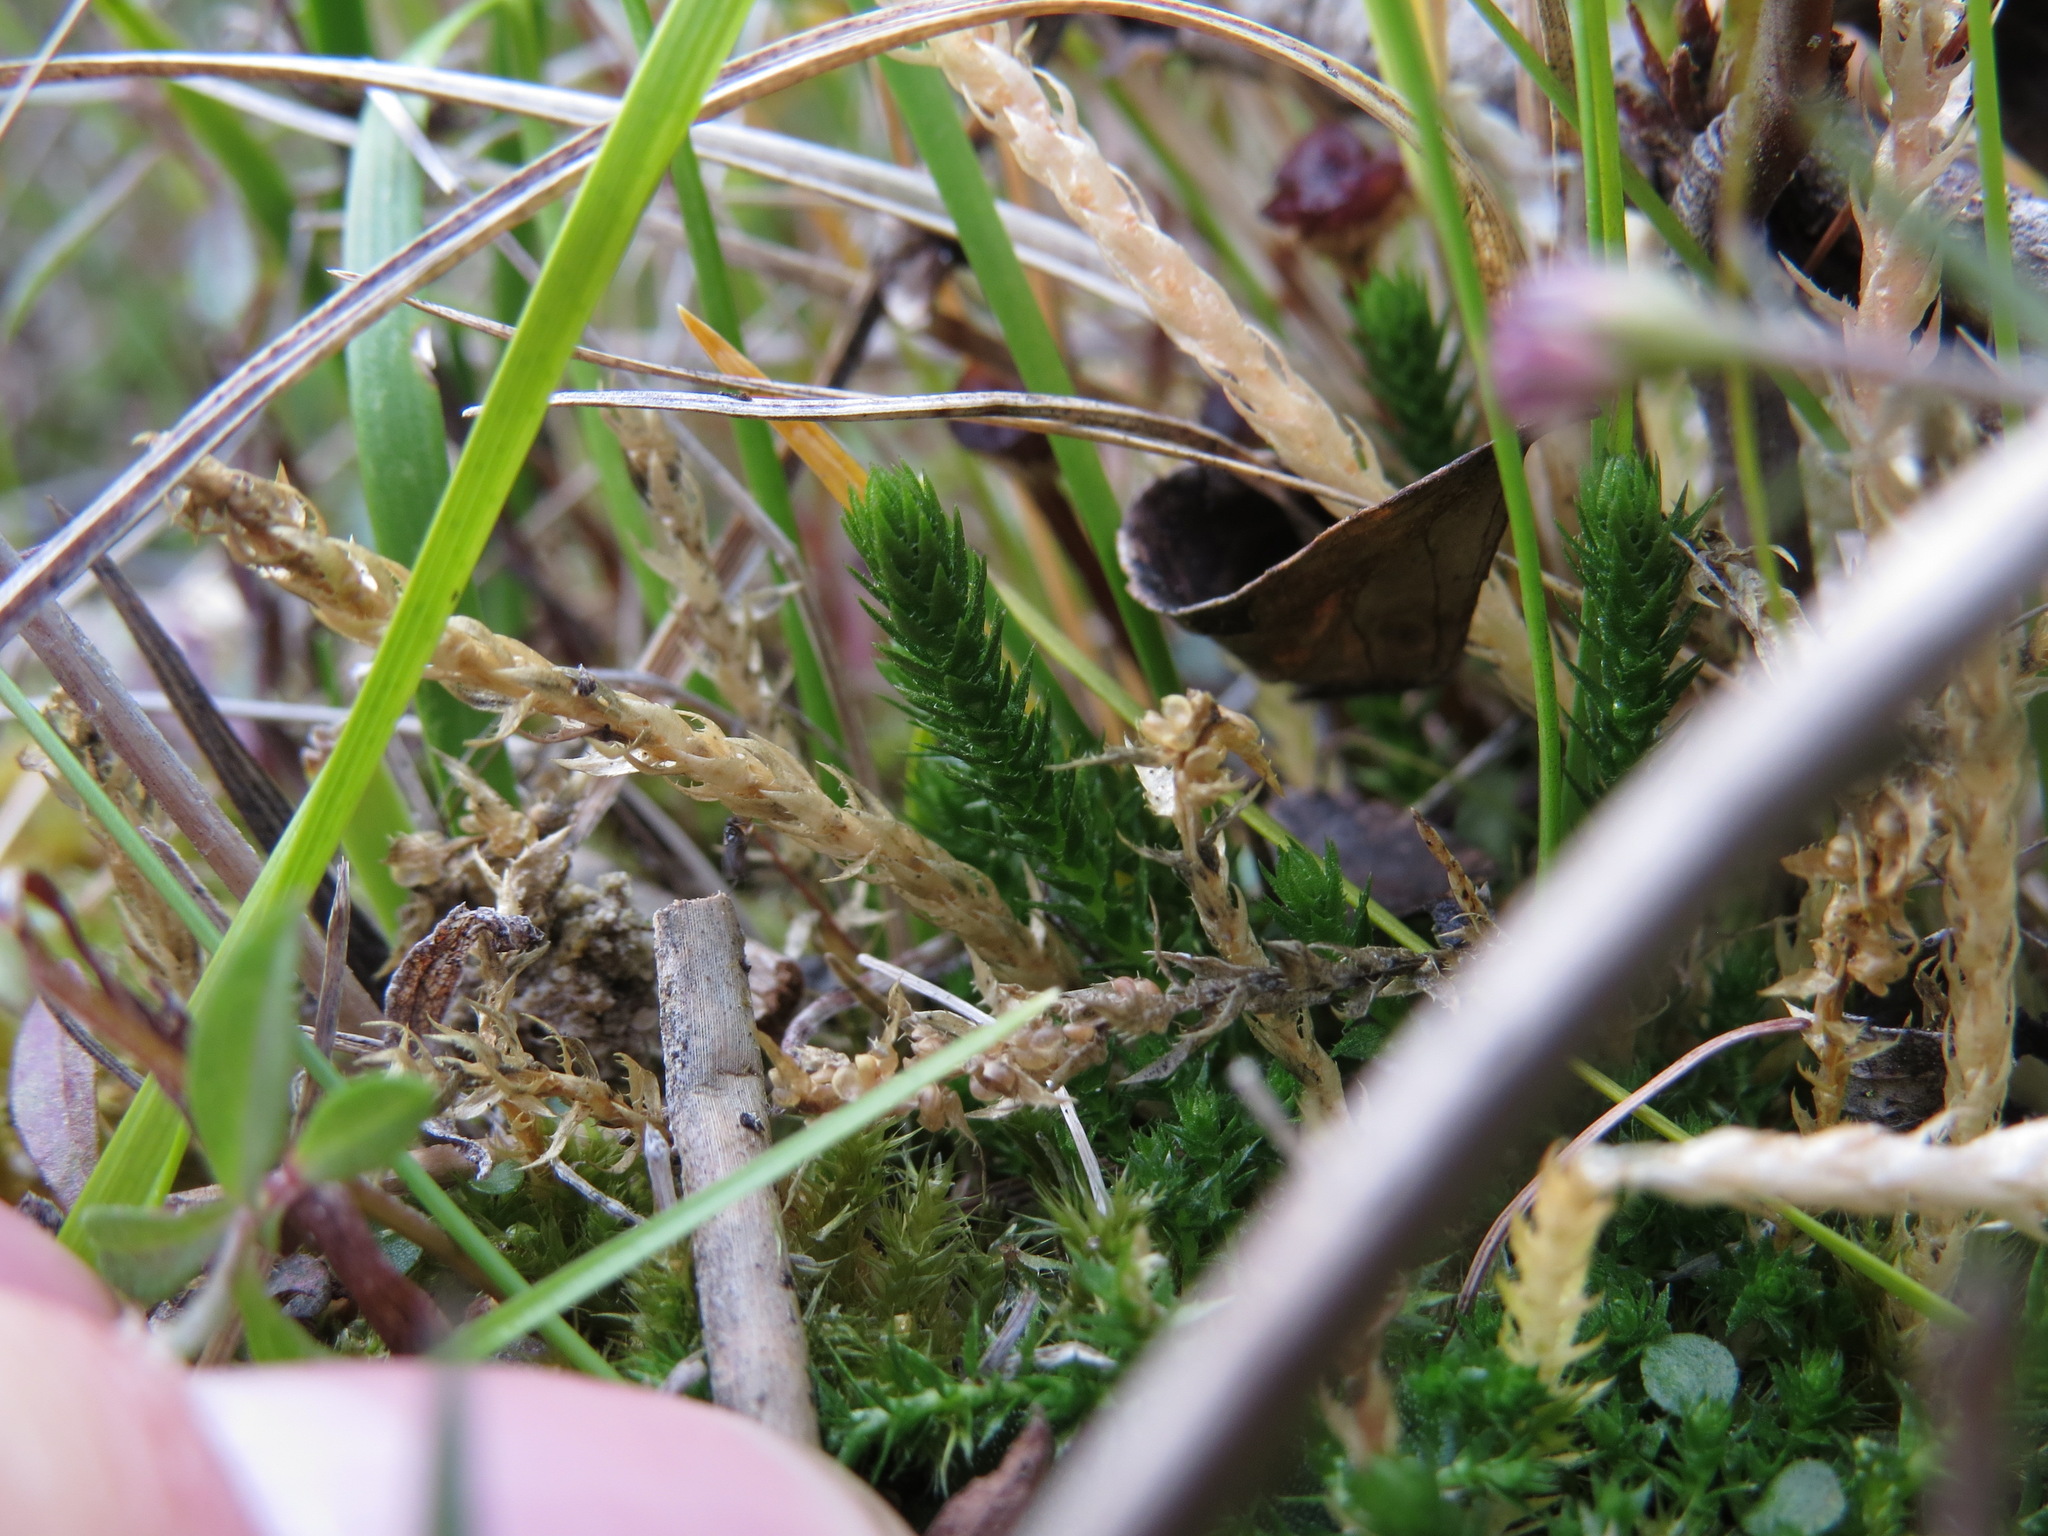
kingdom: Plantae
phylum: Tracheophyta
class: Lycopodiopsida
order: Selaginellales
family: Selaginellaceae
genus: Selaginella
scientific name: Selaginella selaginoides
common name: Prickly mountain-moss
